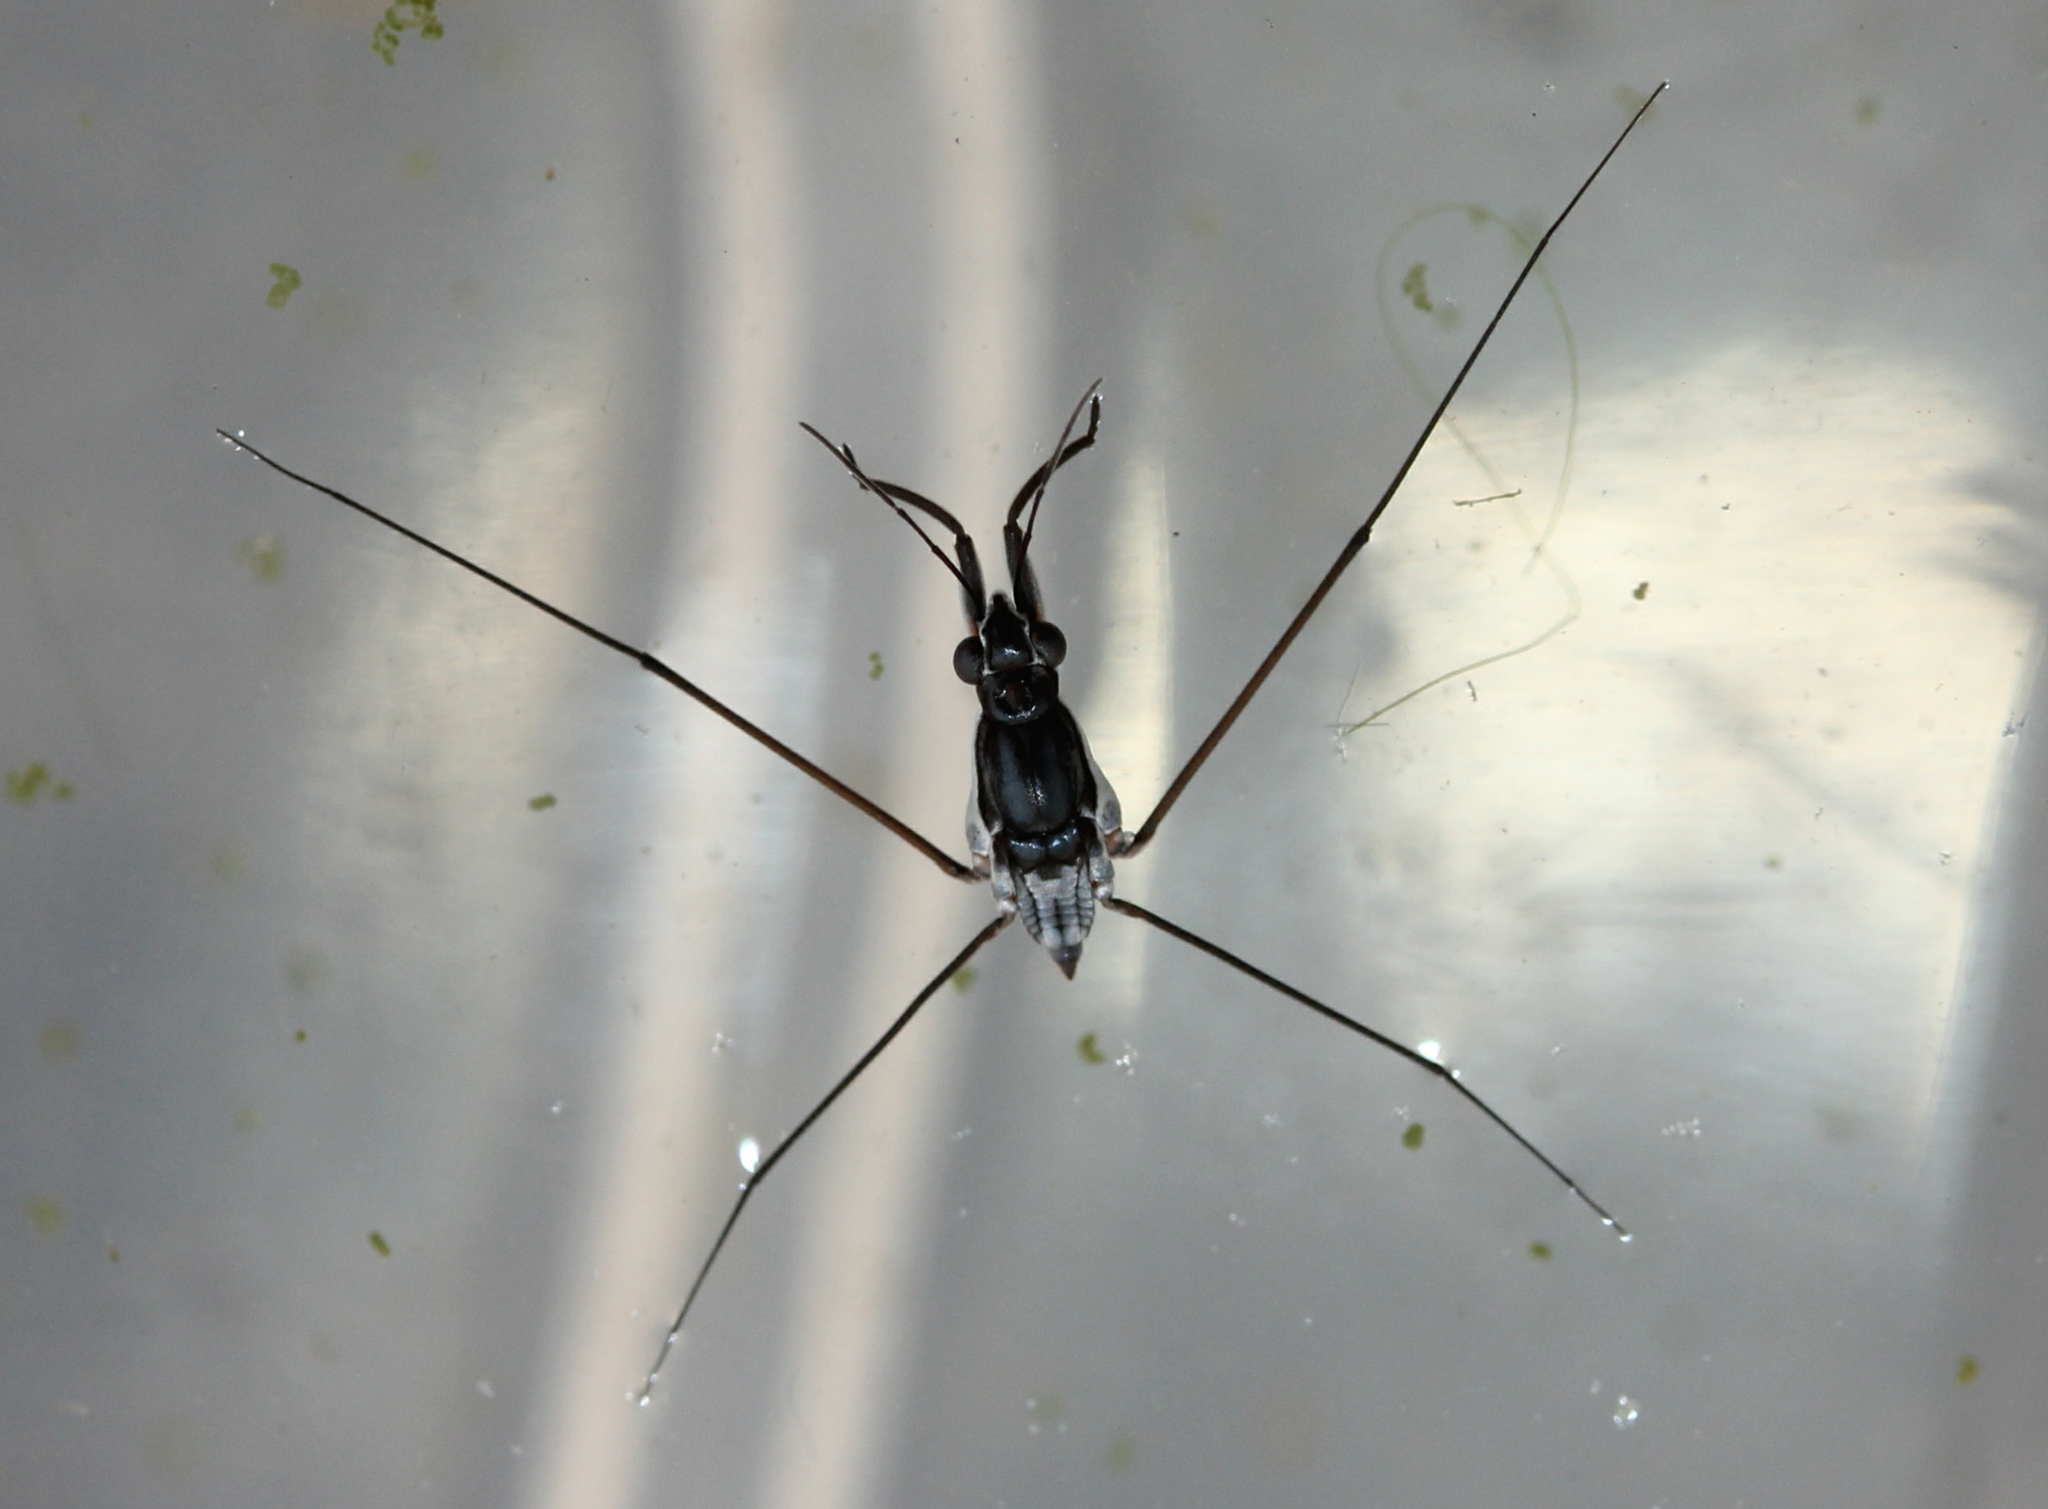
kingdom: Animalia
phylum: Arthropoda
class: Insecta
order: Hemiptera
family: Gerridae
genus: Neogerris
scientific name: Neogerris hesione
